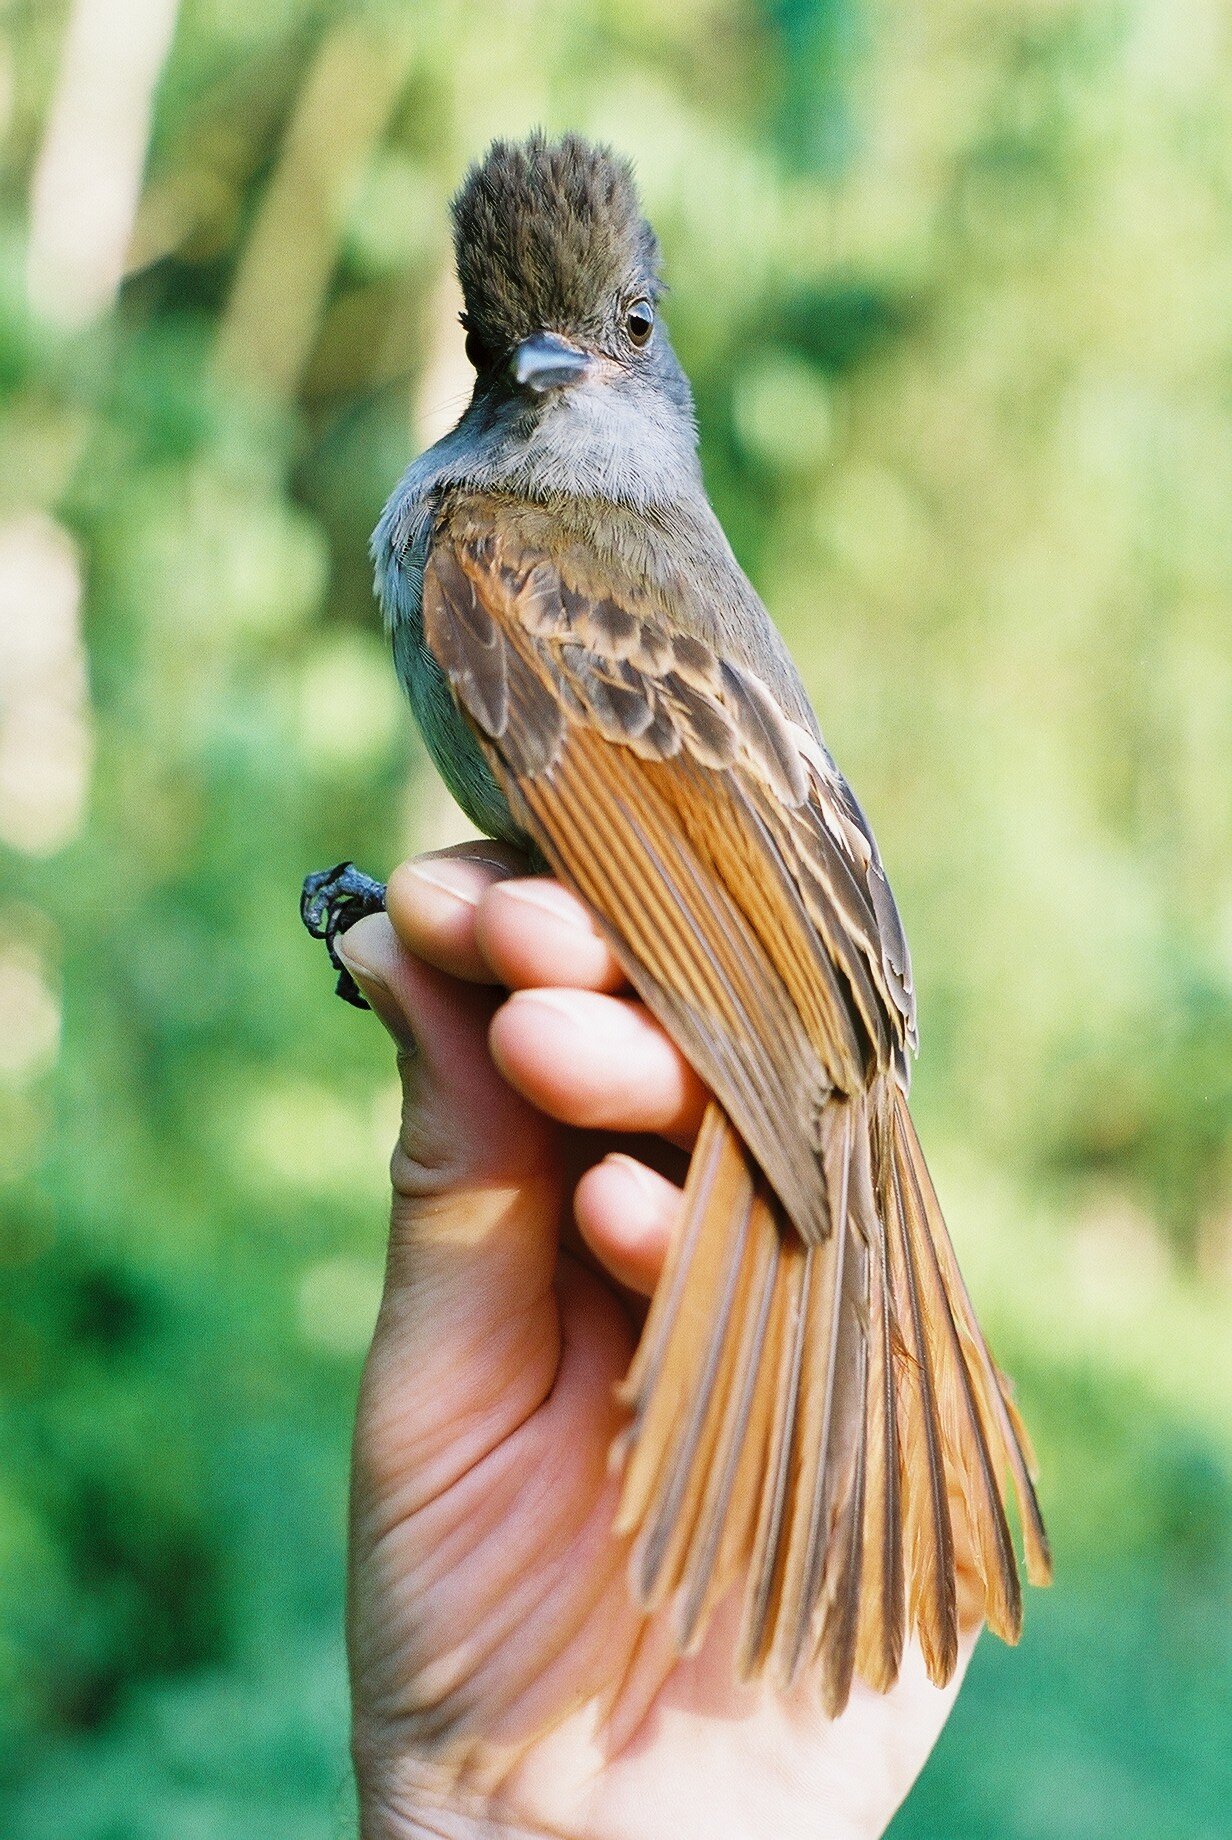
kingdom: Animalia
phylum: Chordata
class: Aves
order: Passeriformes
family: Tyrannidae
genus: Myiarchus
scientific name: Myiarchus validus
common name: Rufous-tailed flycatcher
